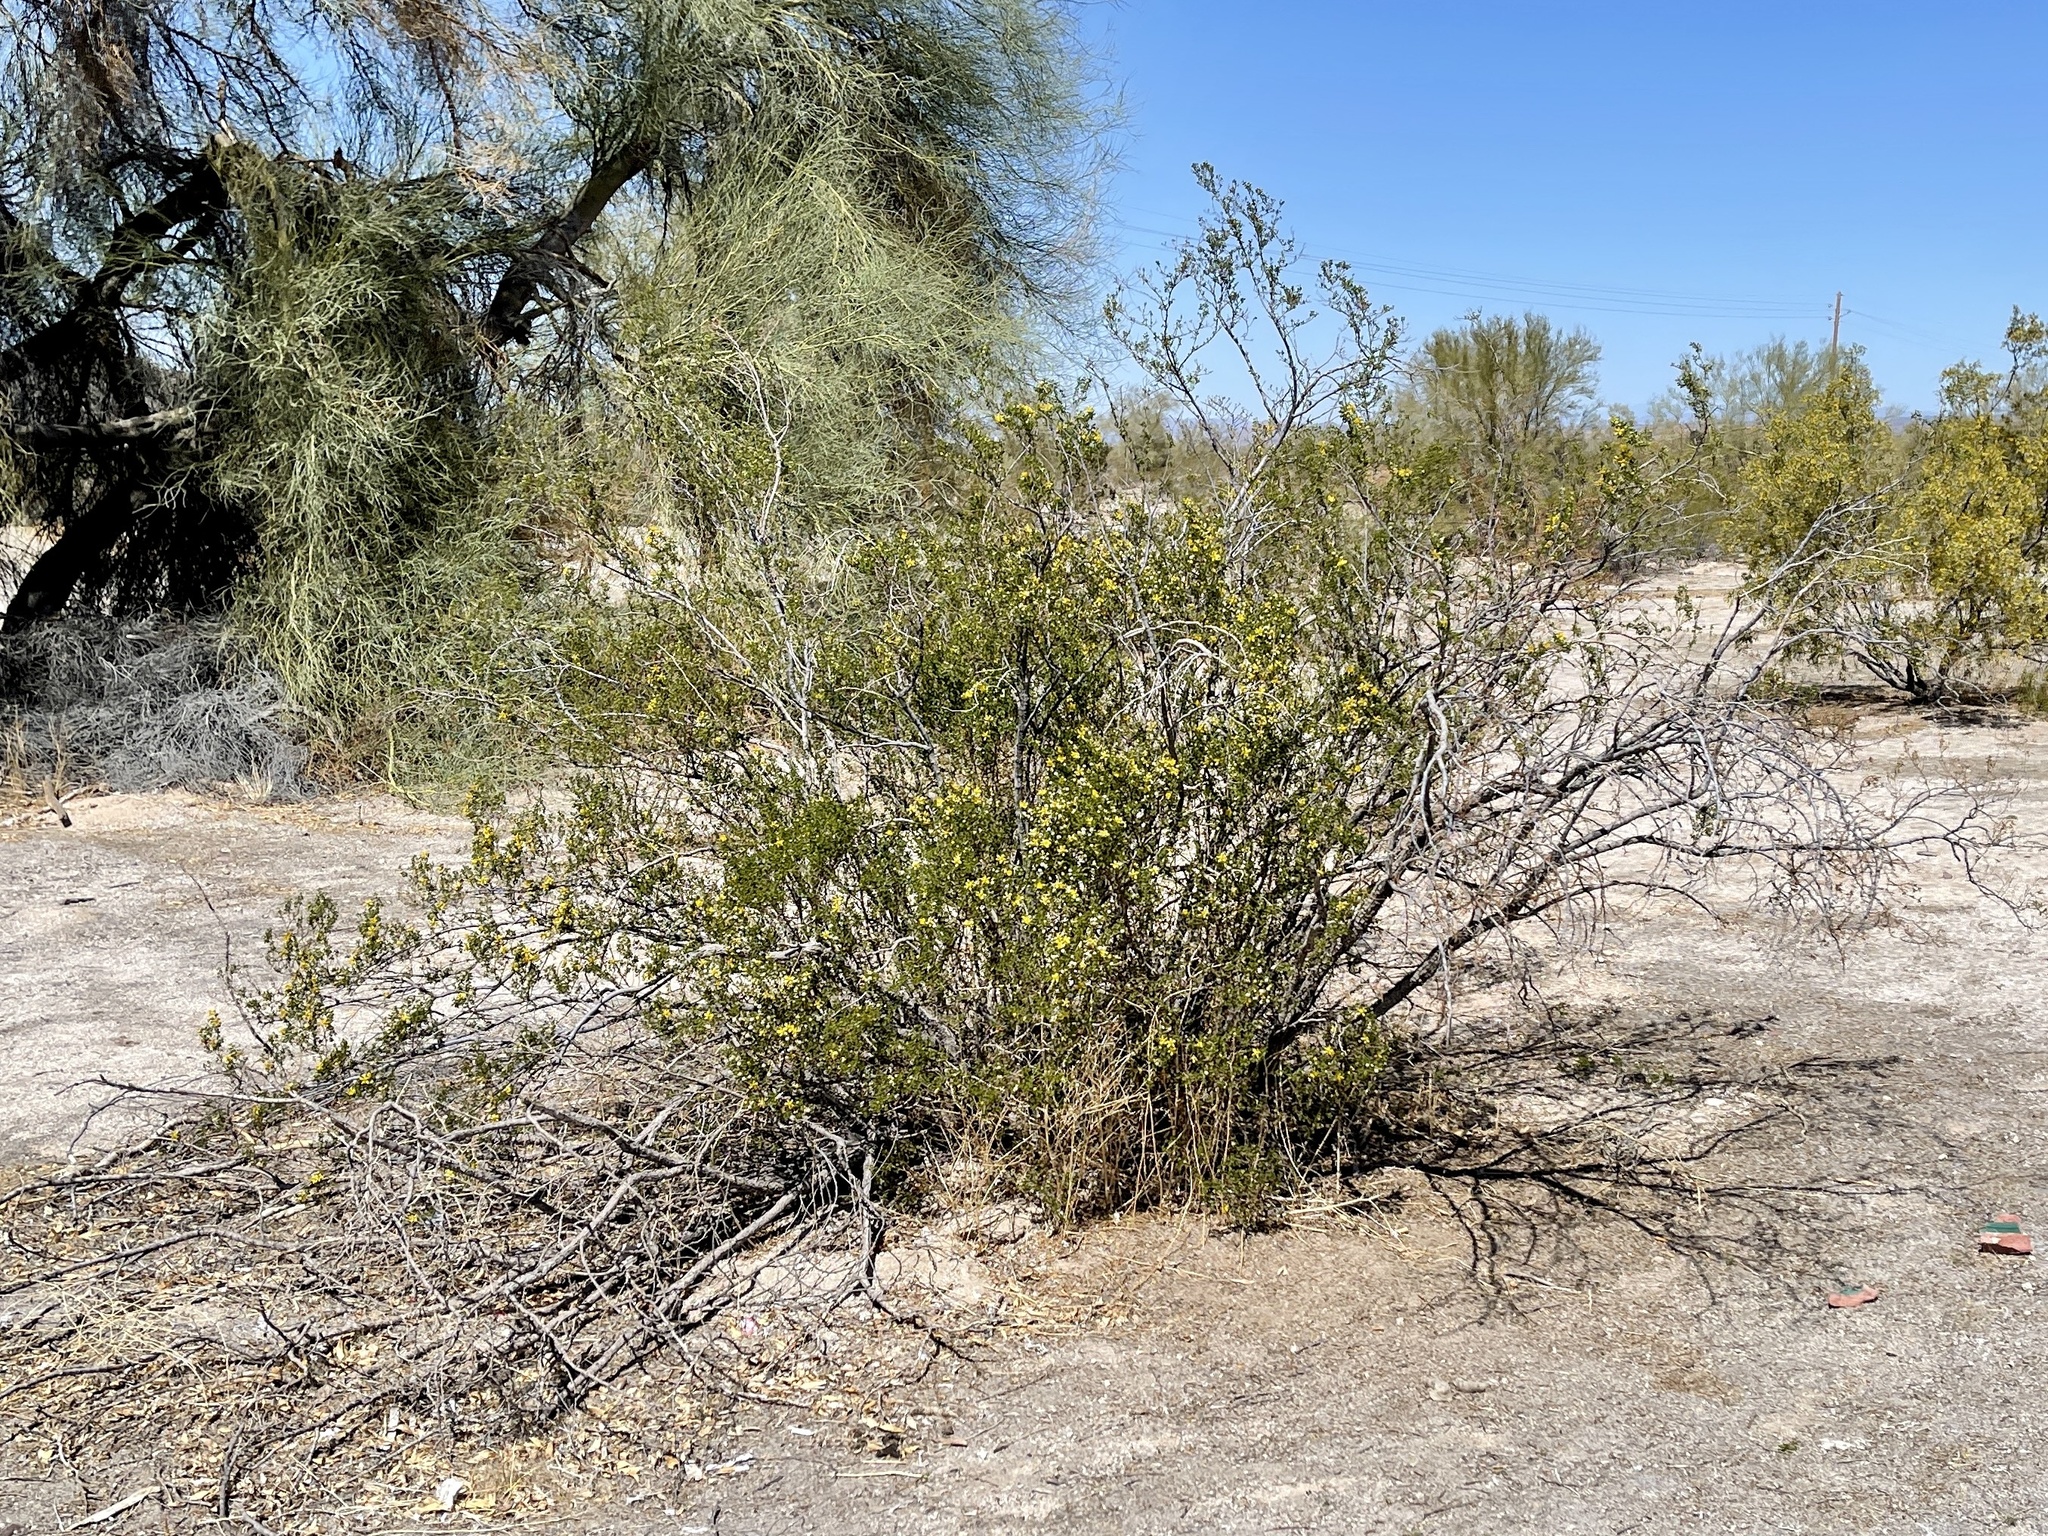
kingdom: Plantae
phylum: Tracheophyta
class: Magnoliopsida
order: Zygophyllales
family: Zygophyllaceae
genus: Larrea
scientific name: Larrea tridentata
